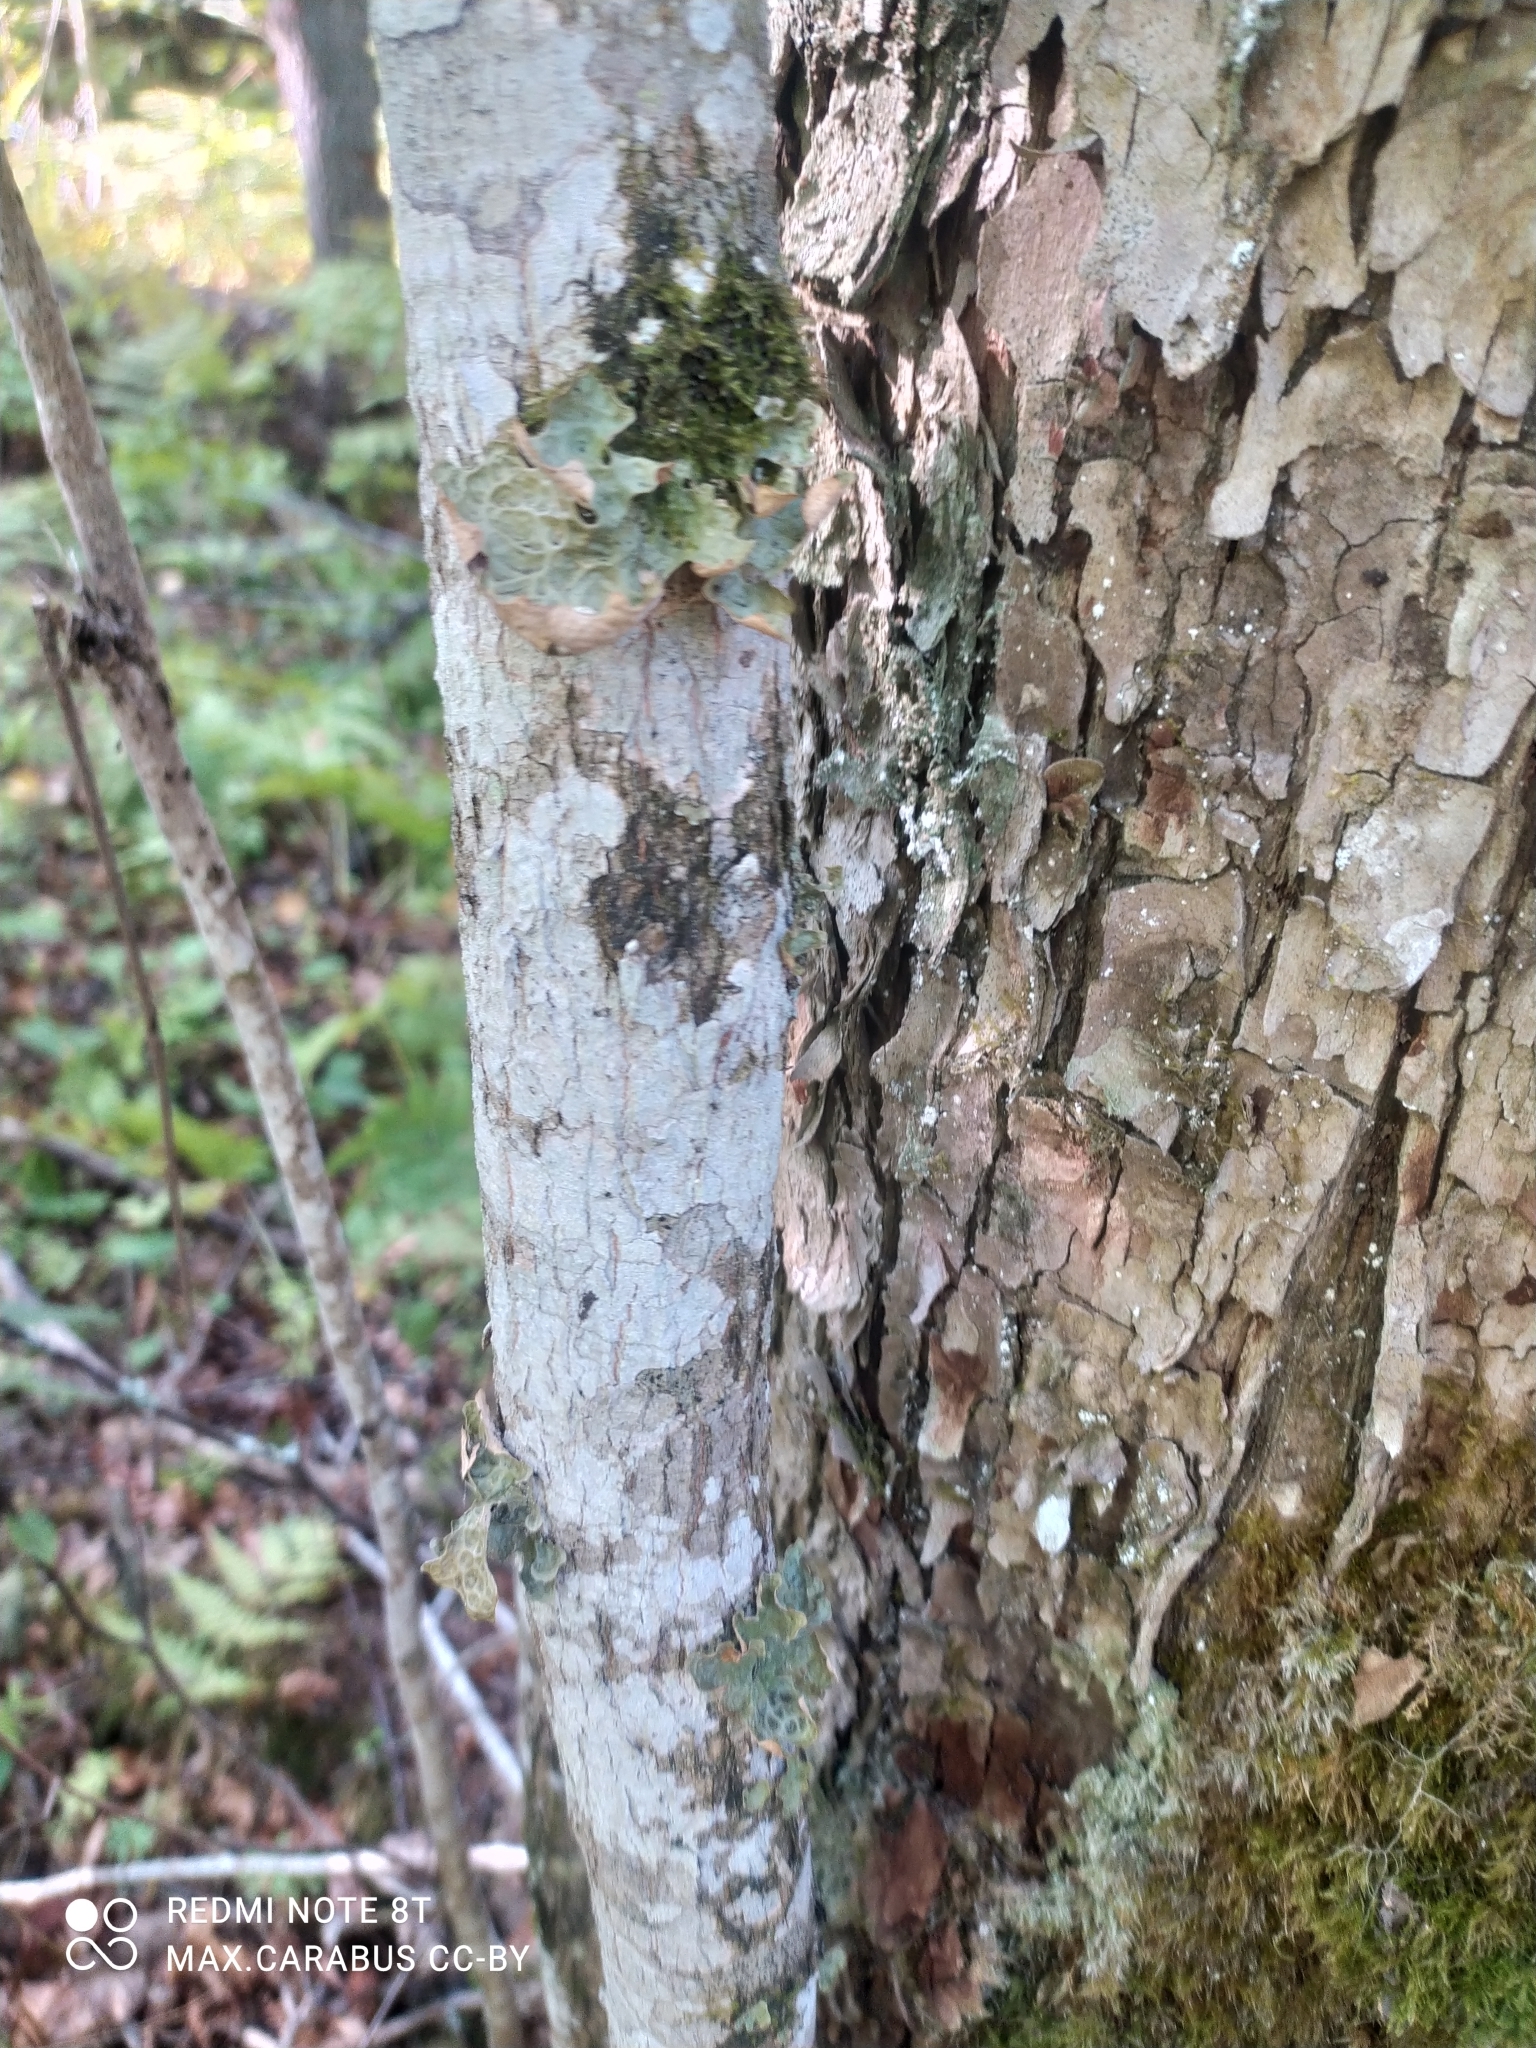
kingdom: Fungi
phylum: Ascomycota
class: Lecanoromycetes
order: Peltigerales
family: Lobariaceae
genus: Lobaria
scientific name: Lobaria pulmonaria
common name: Lungwort
